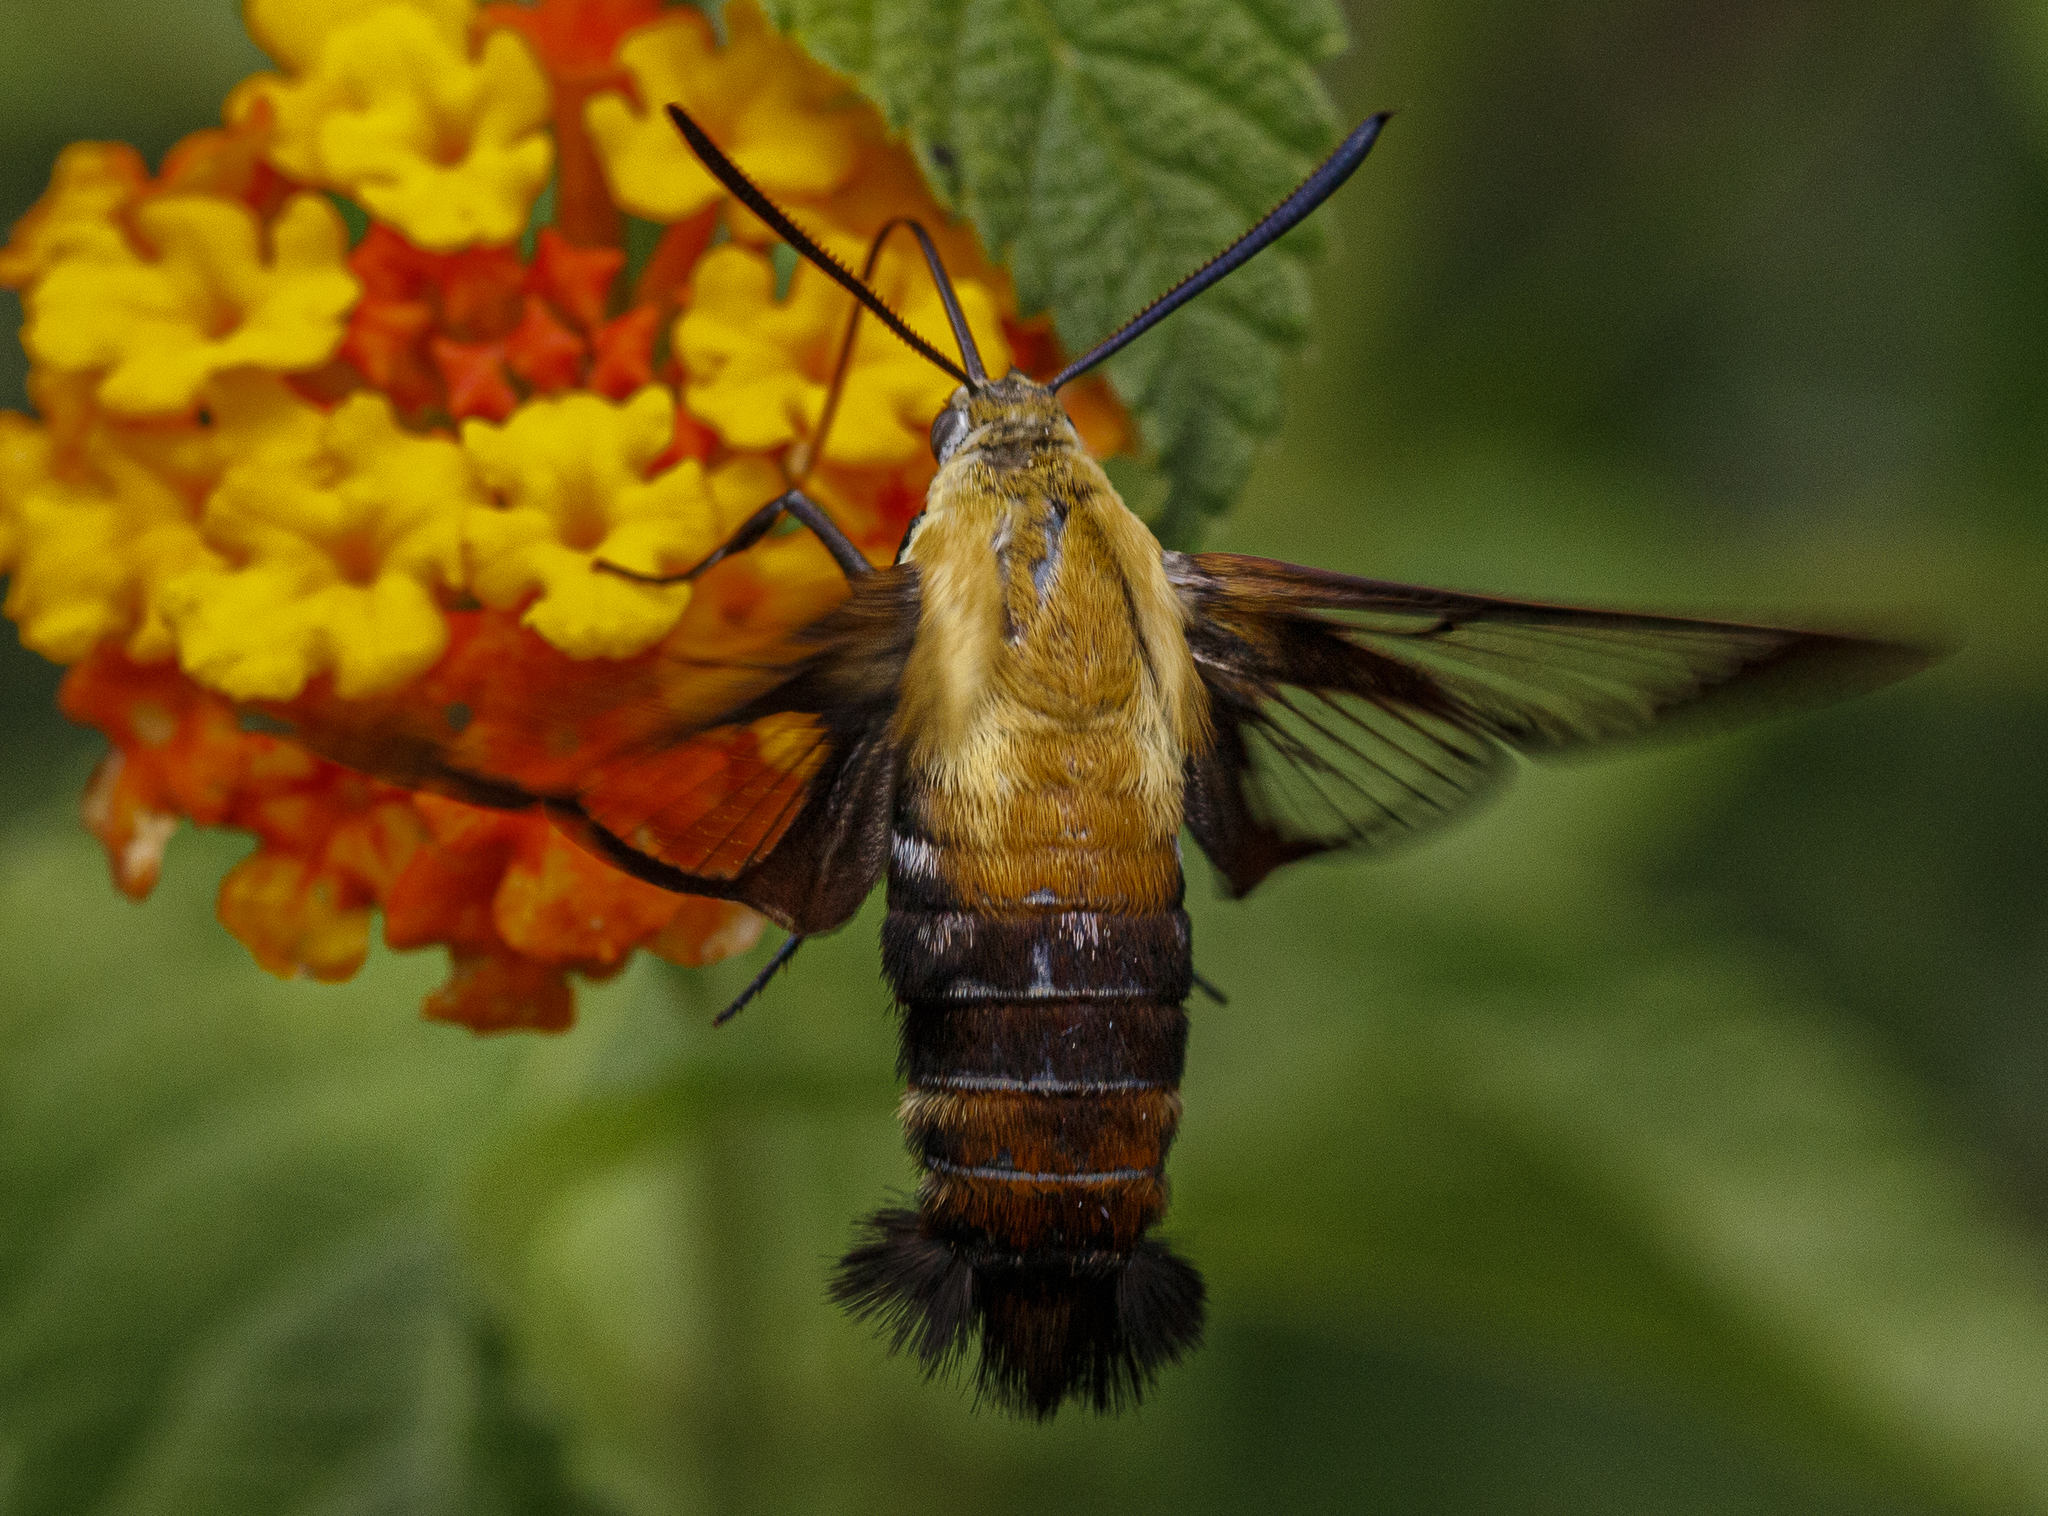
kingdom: Animalia
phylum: Arthropoda
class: Insecta
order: Lepidoptera
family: Sphingidae
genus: Hemaris
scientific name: Hemaris diffinis
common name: Bumblebee moth
